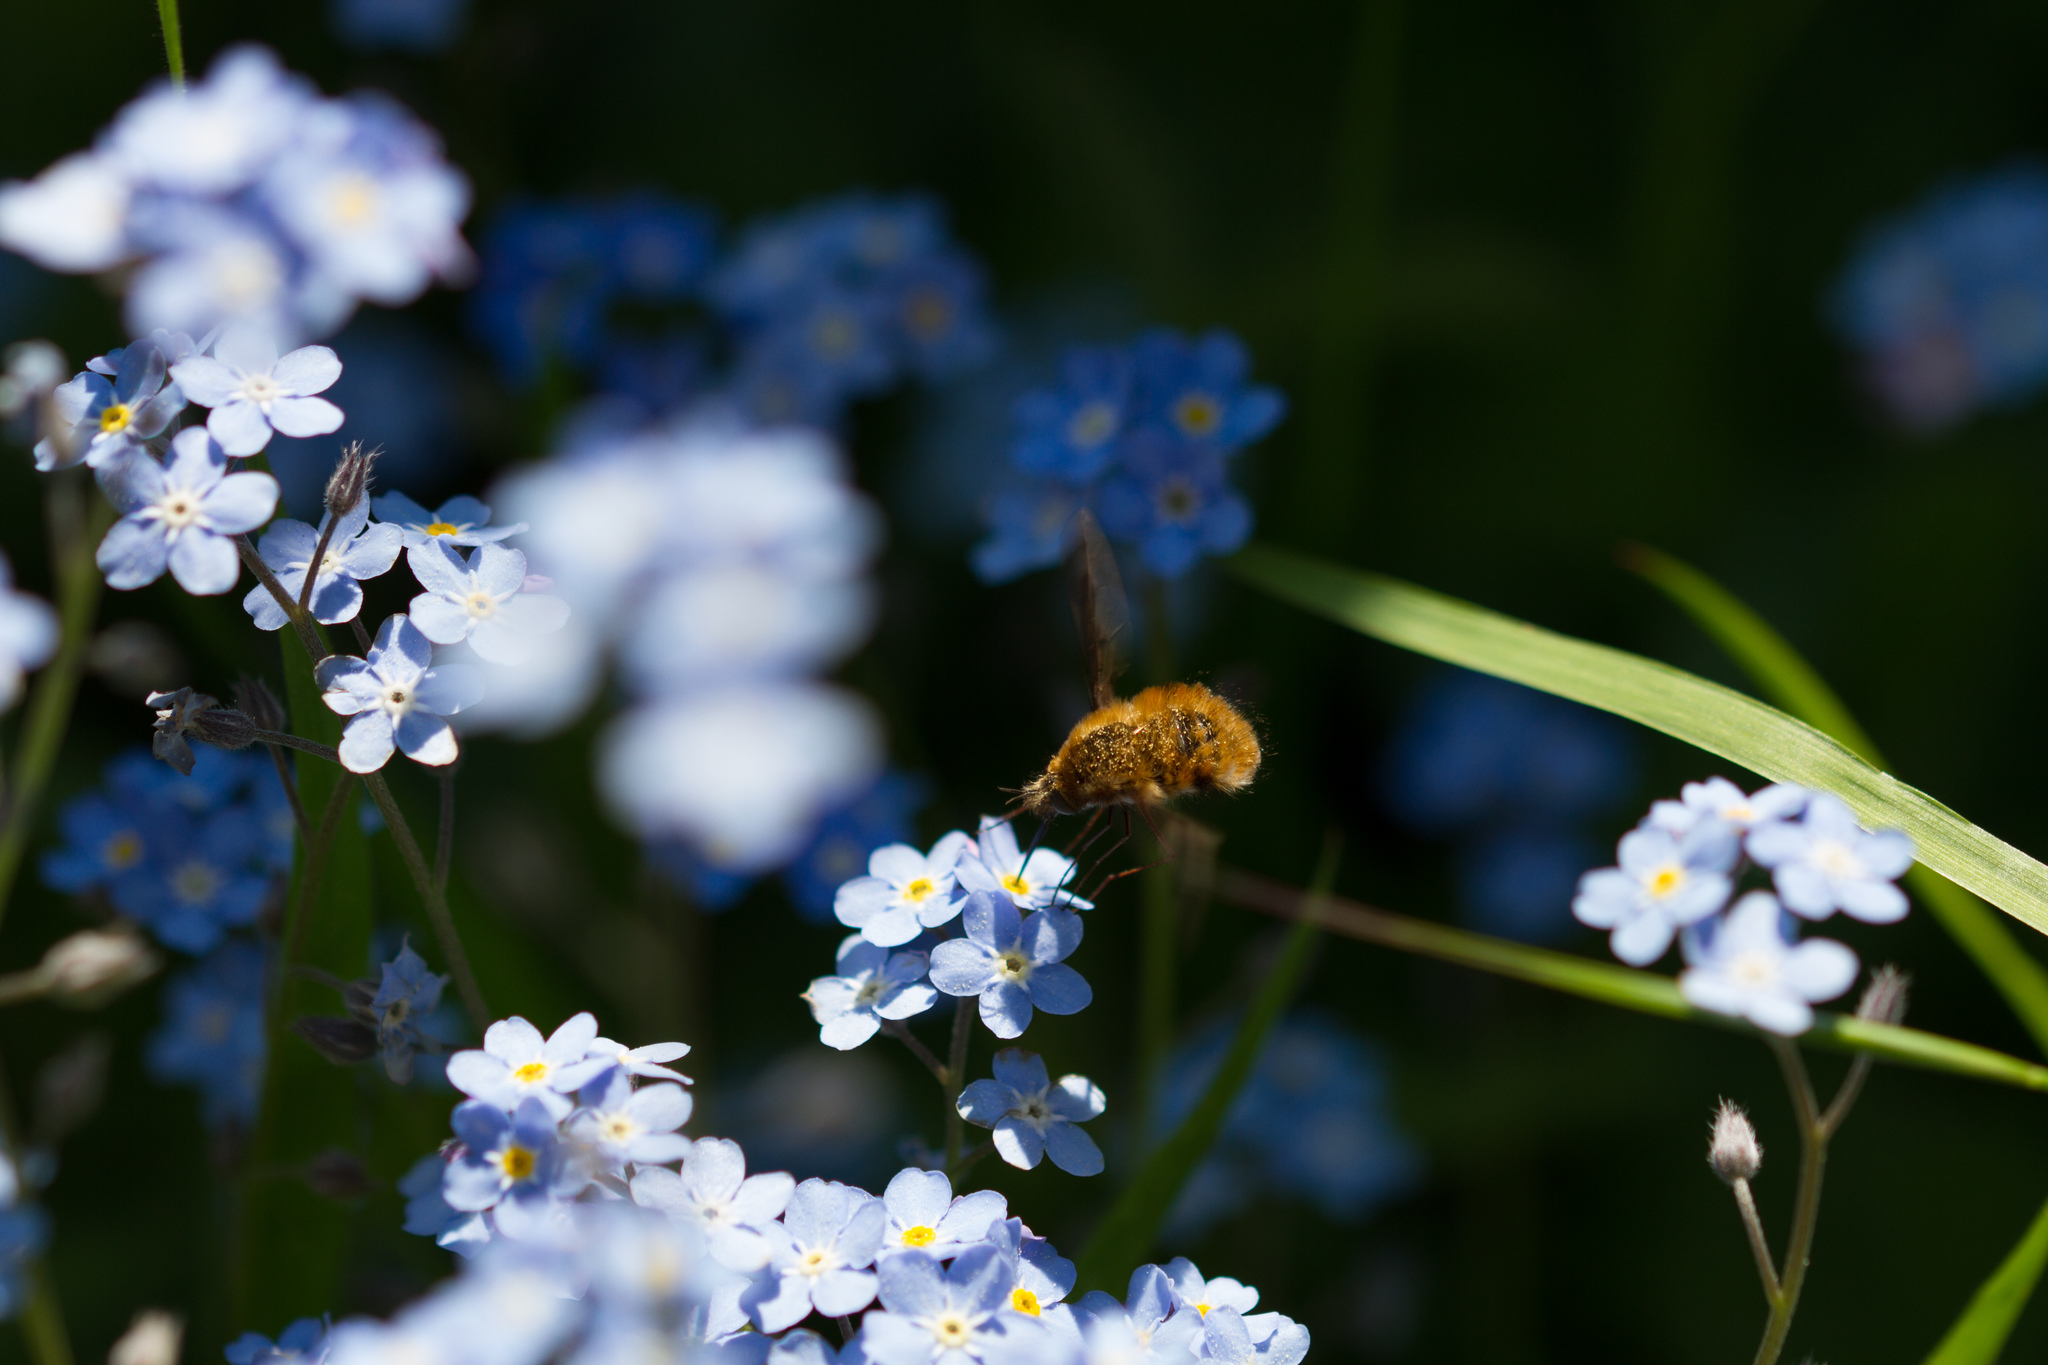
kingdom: Animalia
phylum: Arthropoda
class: Insecta
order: Diptera
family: Bombyliidae
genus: Bombylius
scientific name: Bombylius major
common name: Bee fly
